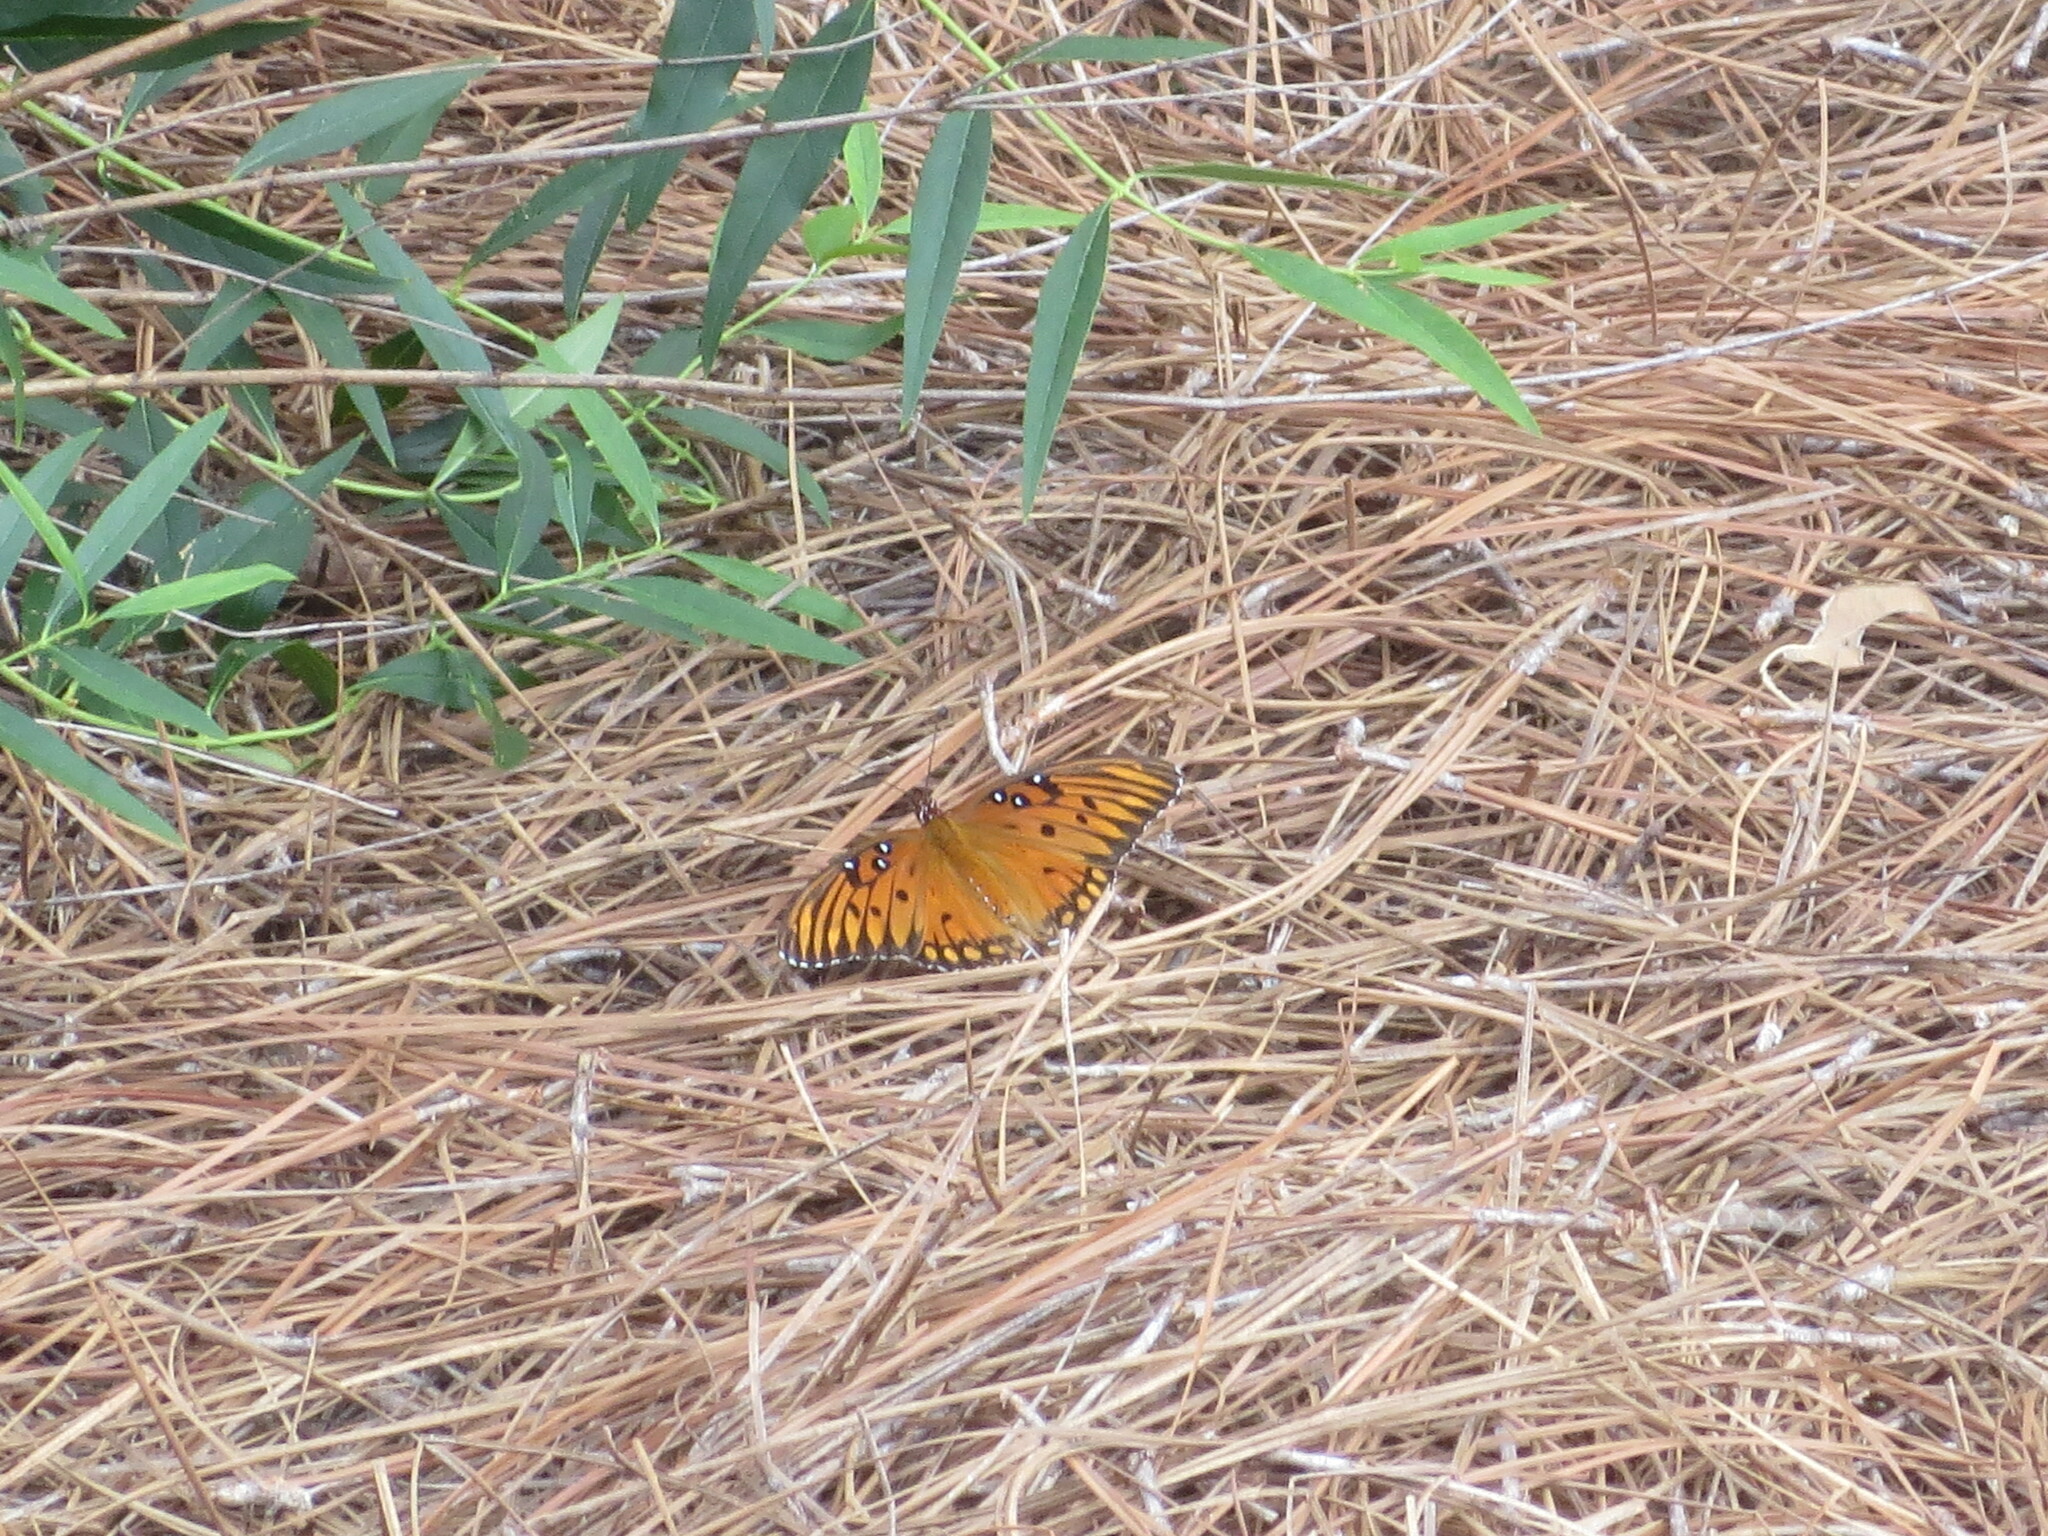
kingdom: Animalia
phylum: Arthropoda
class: Insecta
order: Lepidoptera
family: Nymphalidae
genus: Dione
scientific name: Dione vanillae
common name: Gulf fritillary
